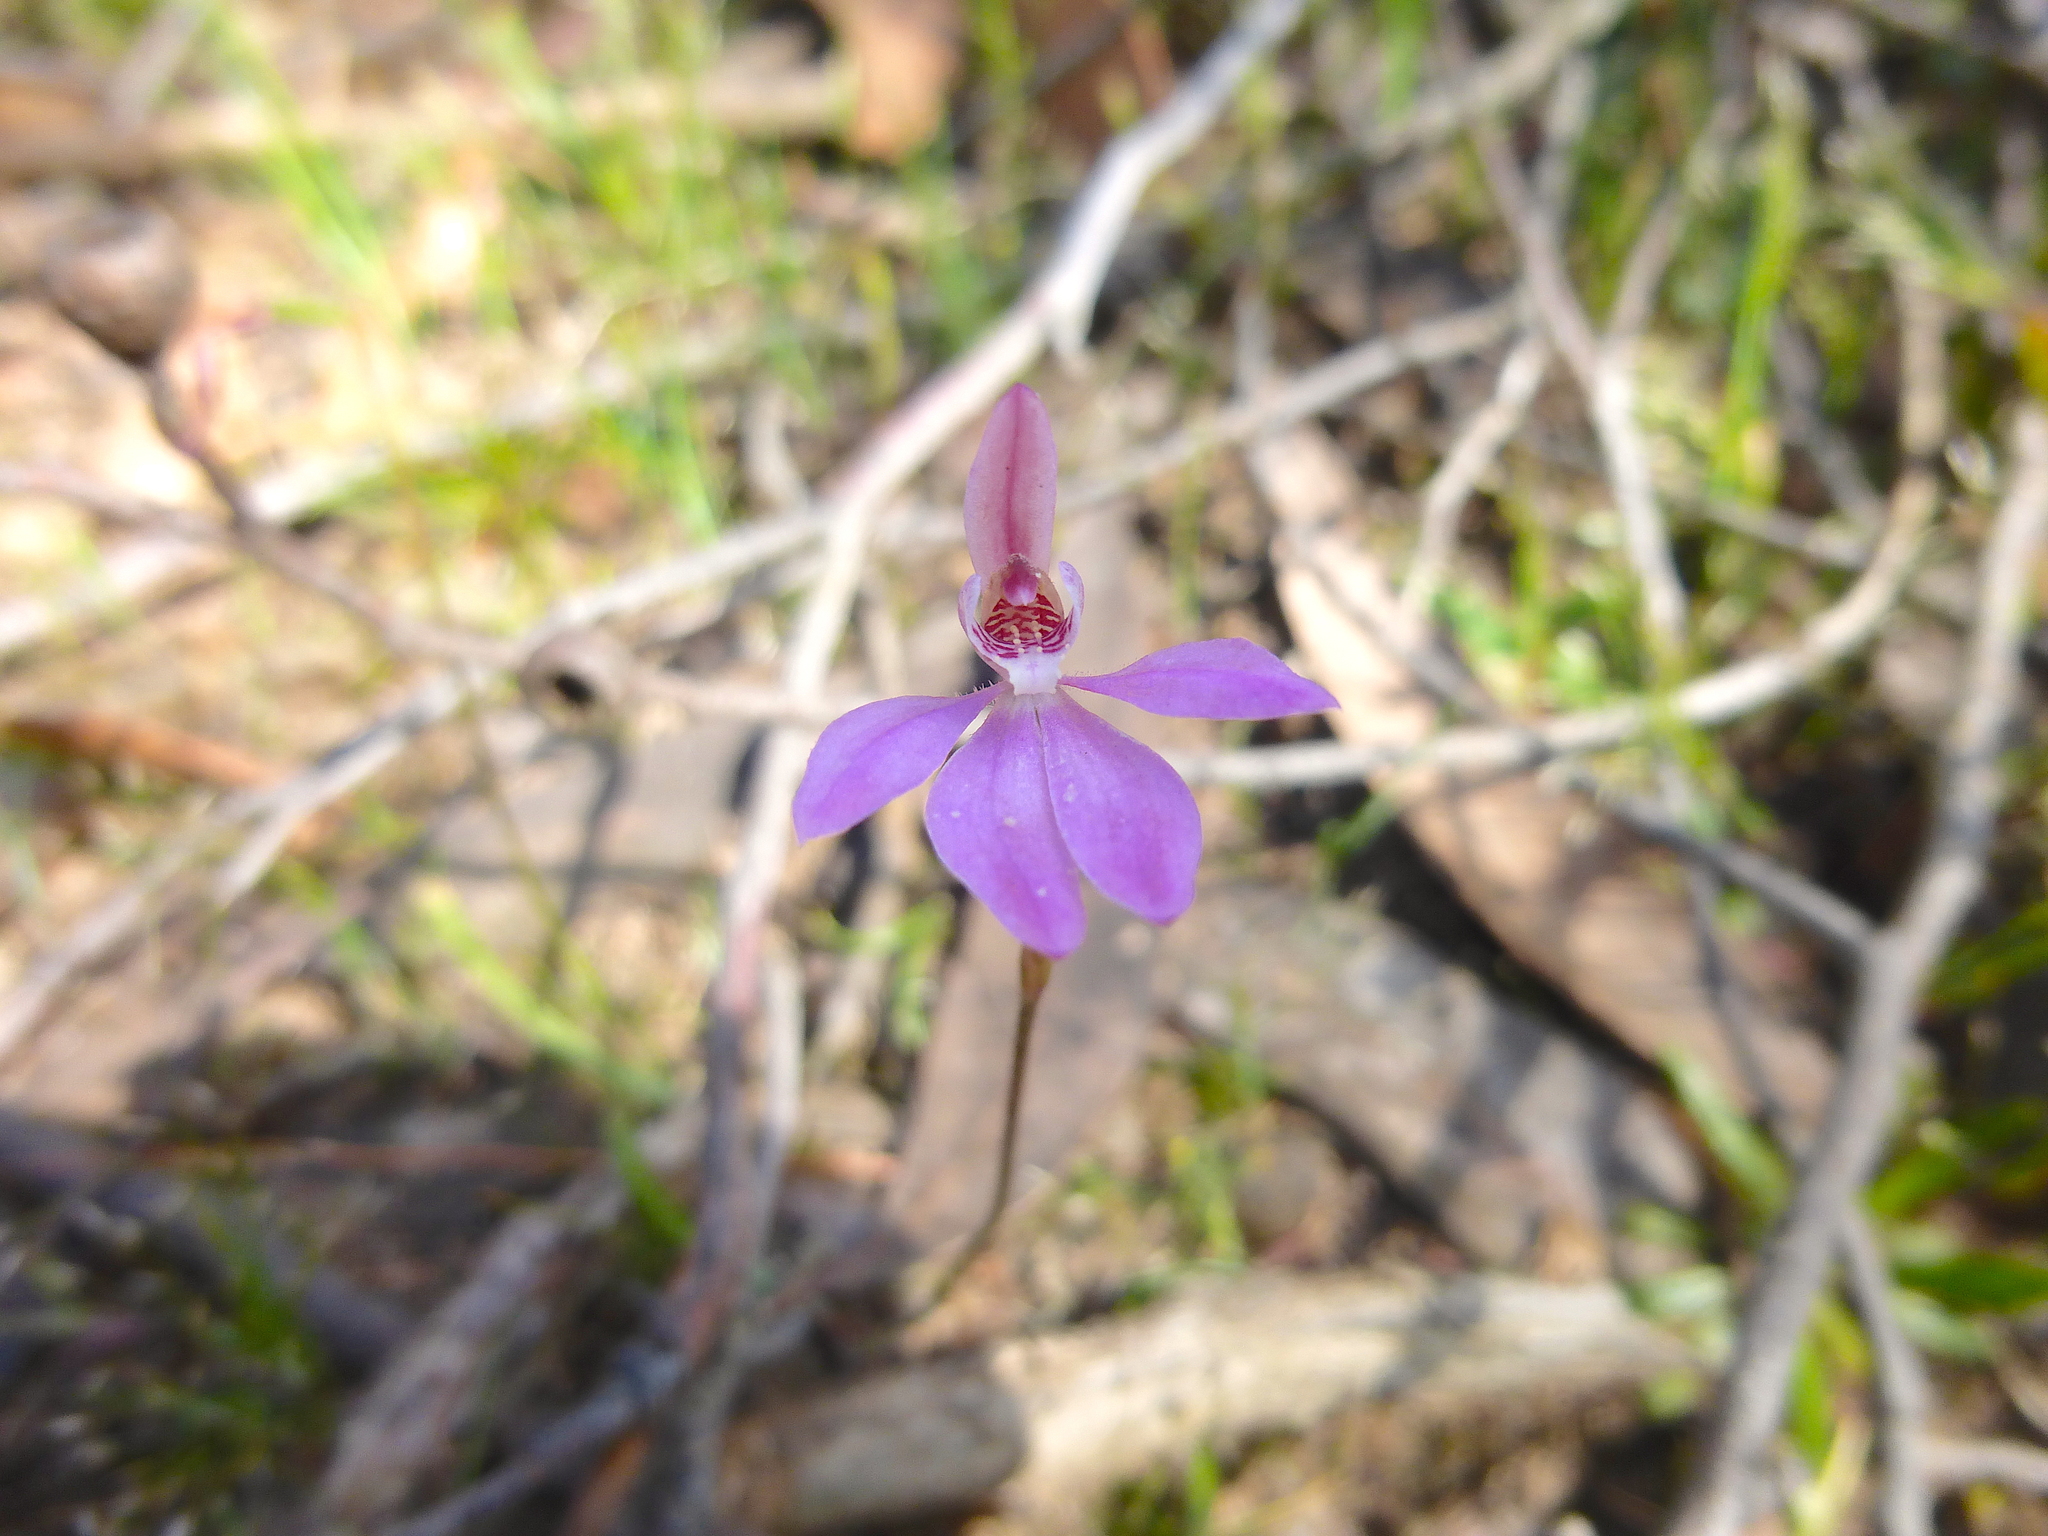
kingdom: Plantae
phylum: Tracheophyta
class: Liliopsida
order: Asparagales
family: Orchidaceae
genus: Caladenia
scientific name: Caladenia carnea
